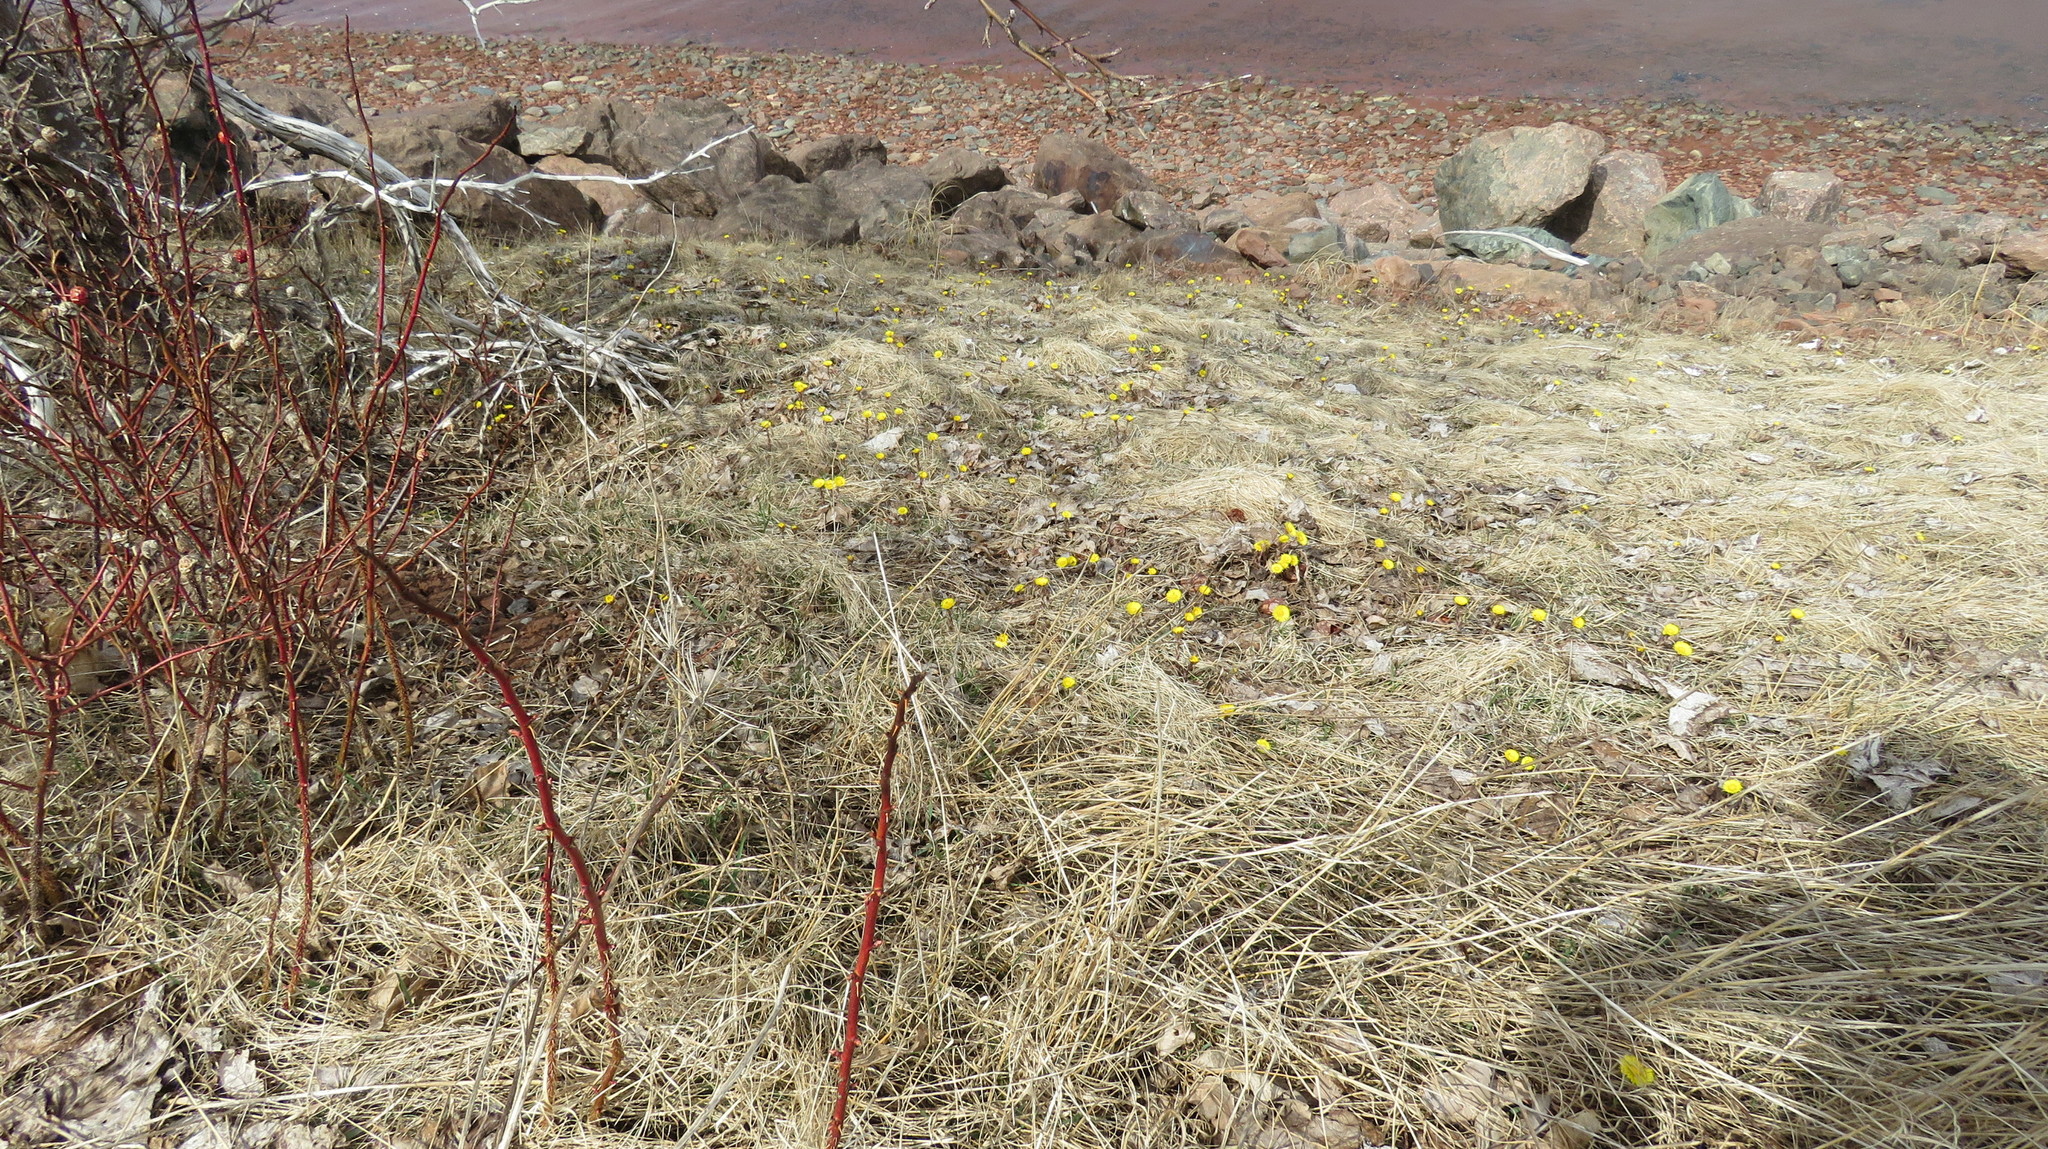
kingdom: Plantae
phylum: Tracheophyta
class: Magnoliopsida
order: Asterales
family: Asteraceae
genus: Tussilago
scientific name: Tussilago farfara
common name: Coltsfoot
